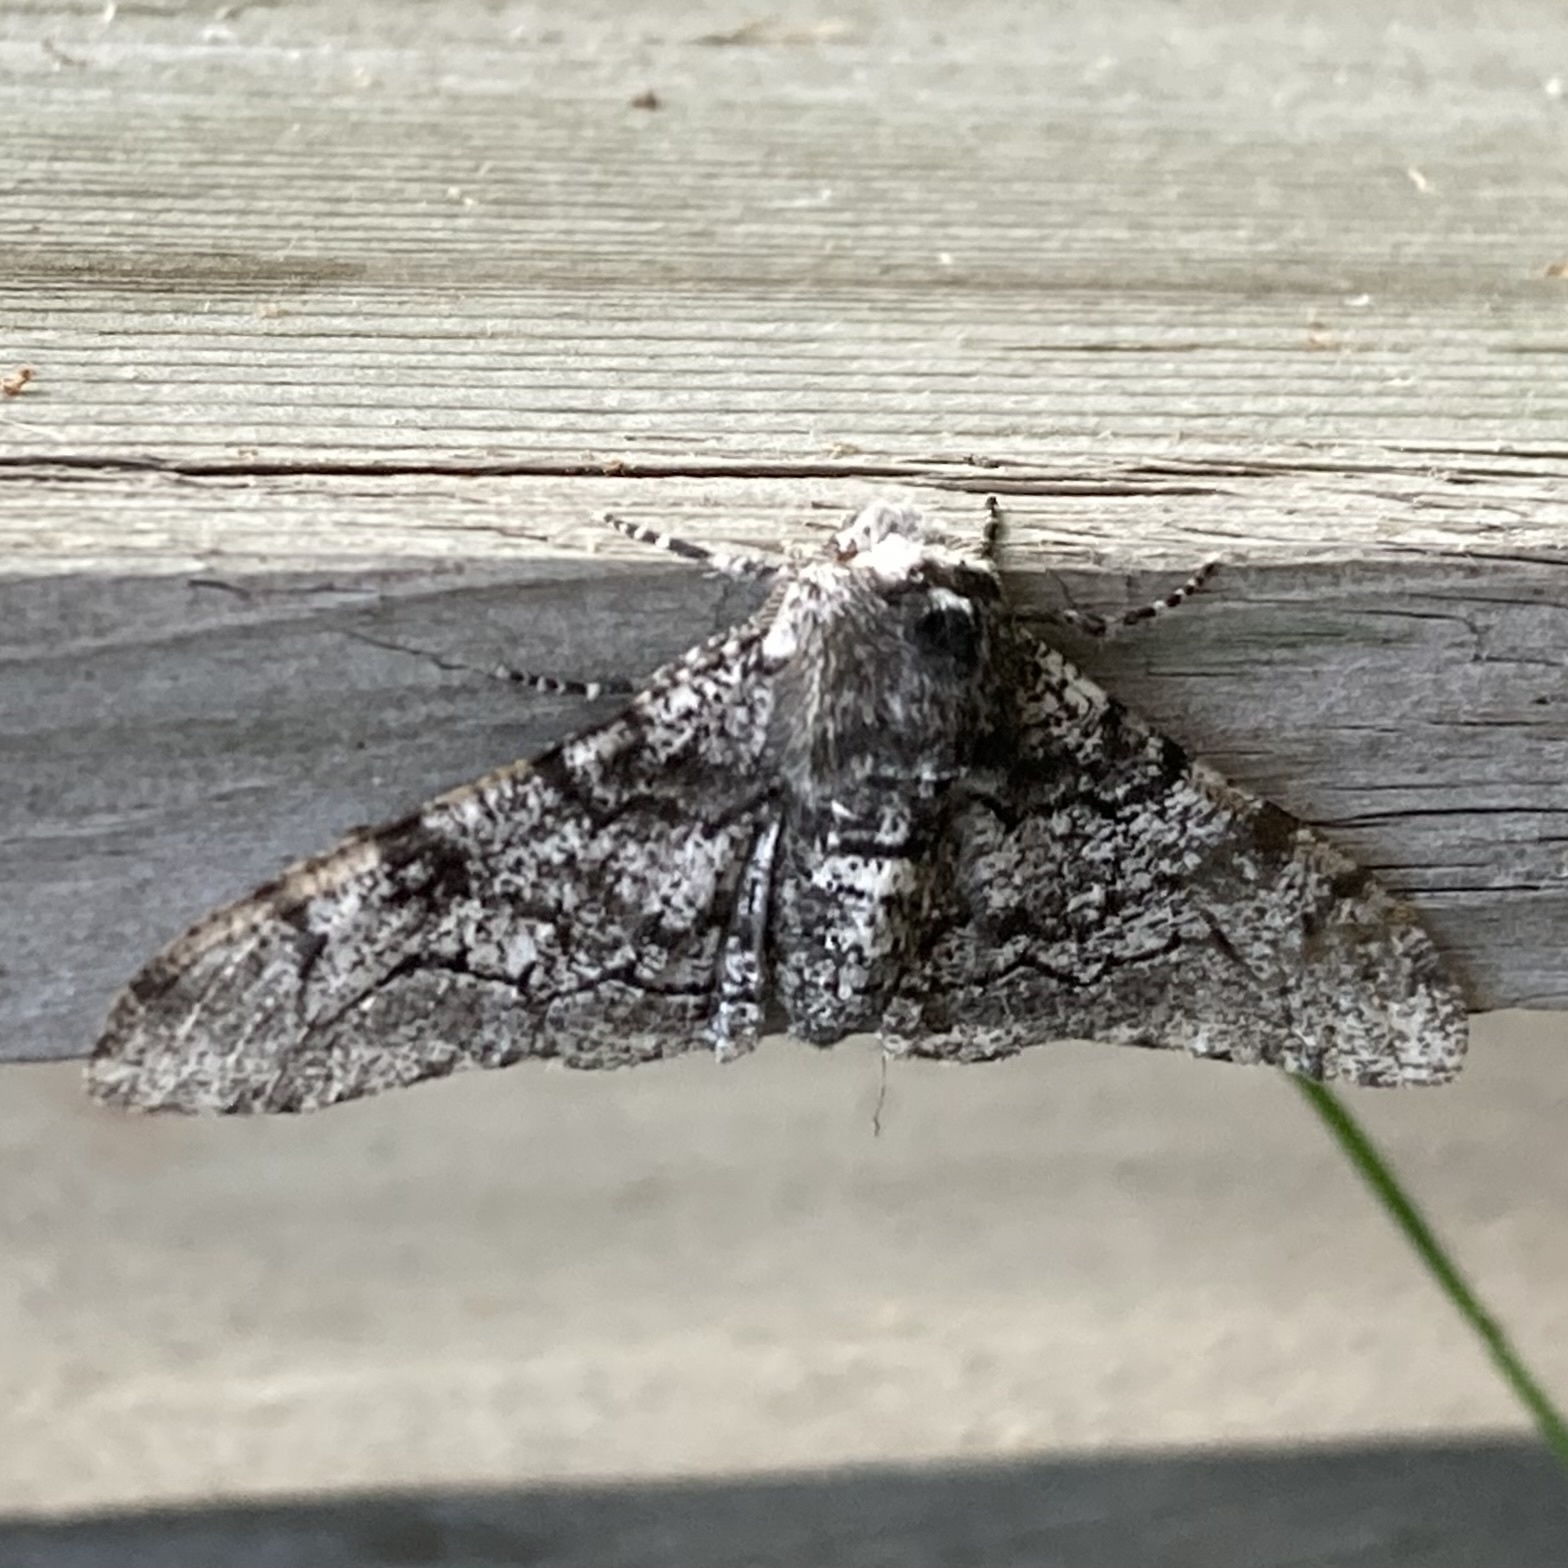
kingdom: Animalia
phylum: Arthropoda
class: Insecta
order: Lepidoptera
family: Geometridae
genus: Biston
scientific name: Biston betularia
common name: Peppered moth
